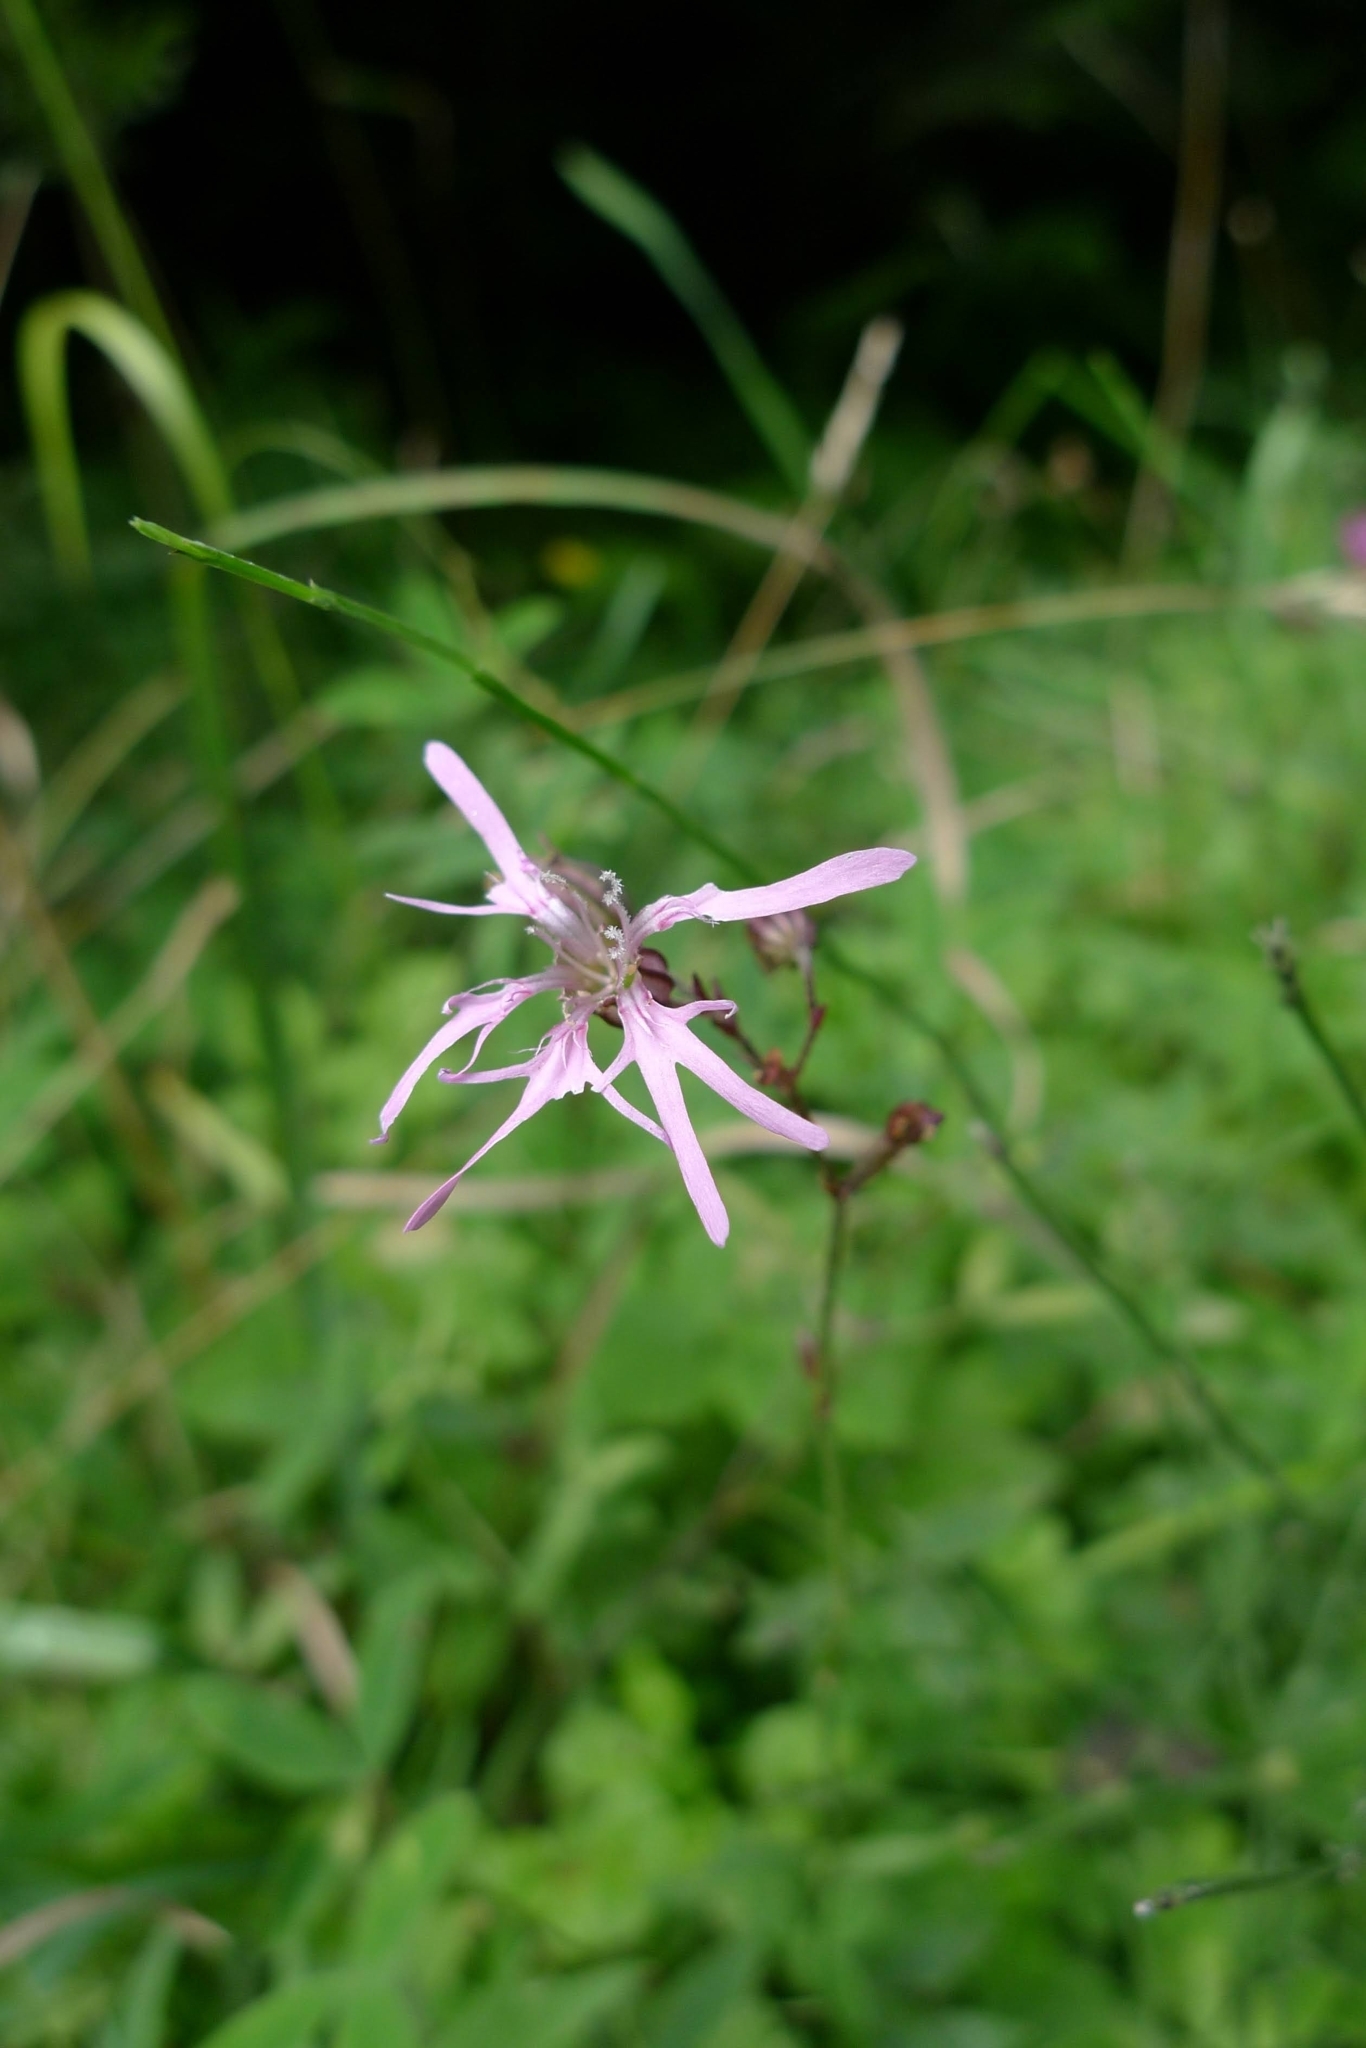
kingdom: Plantae
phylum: Tracheophyta
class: Magnoliopsida
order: Caryophyllales
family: Caryophyllaceae
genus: Silene
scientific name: Silene flos-cuculi
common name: Ragged-robin
